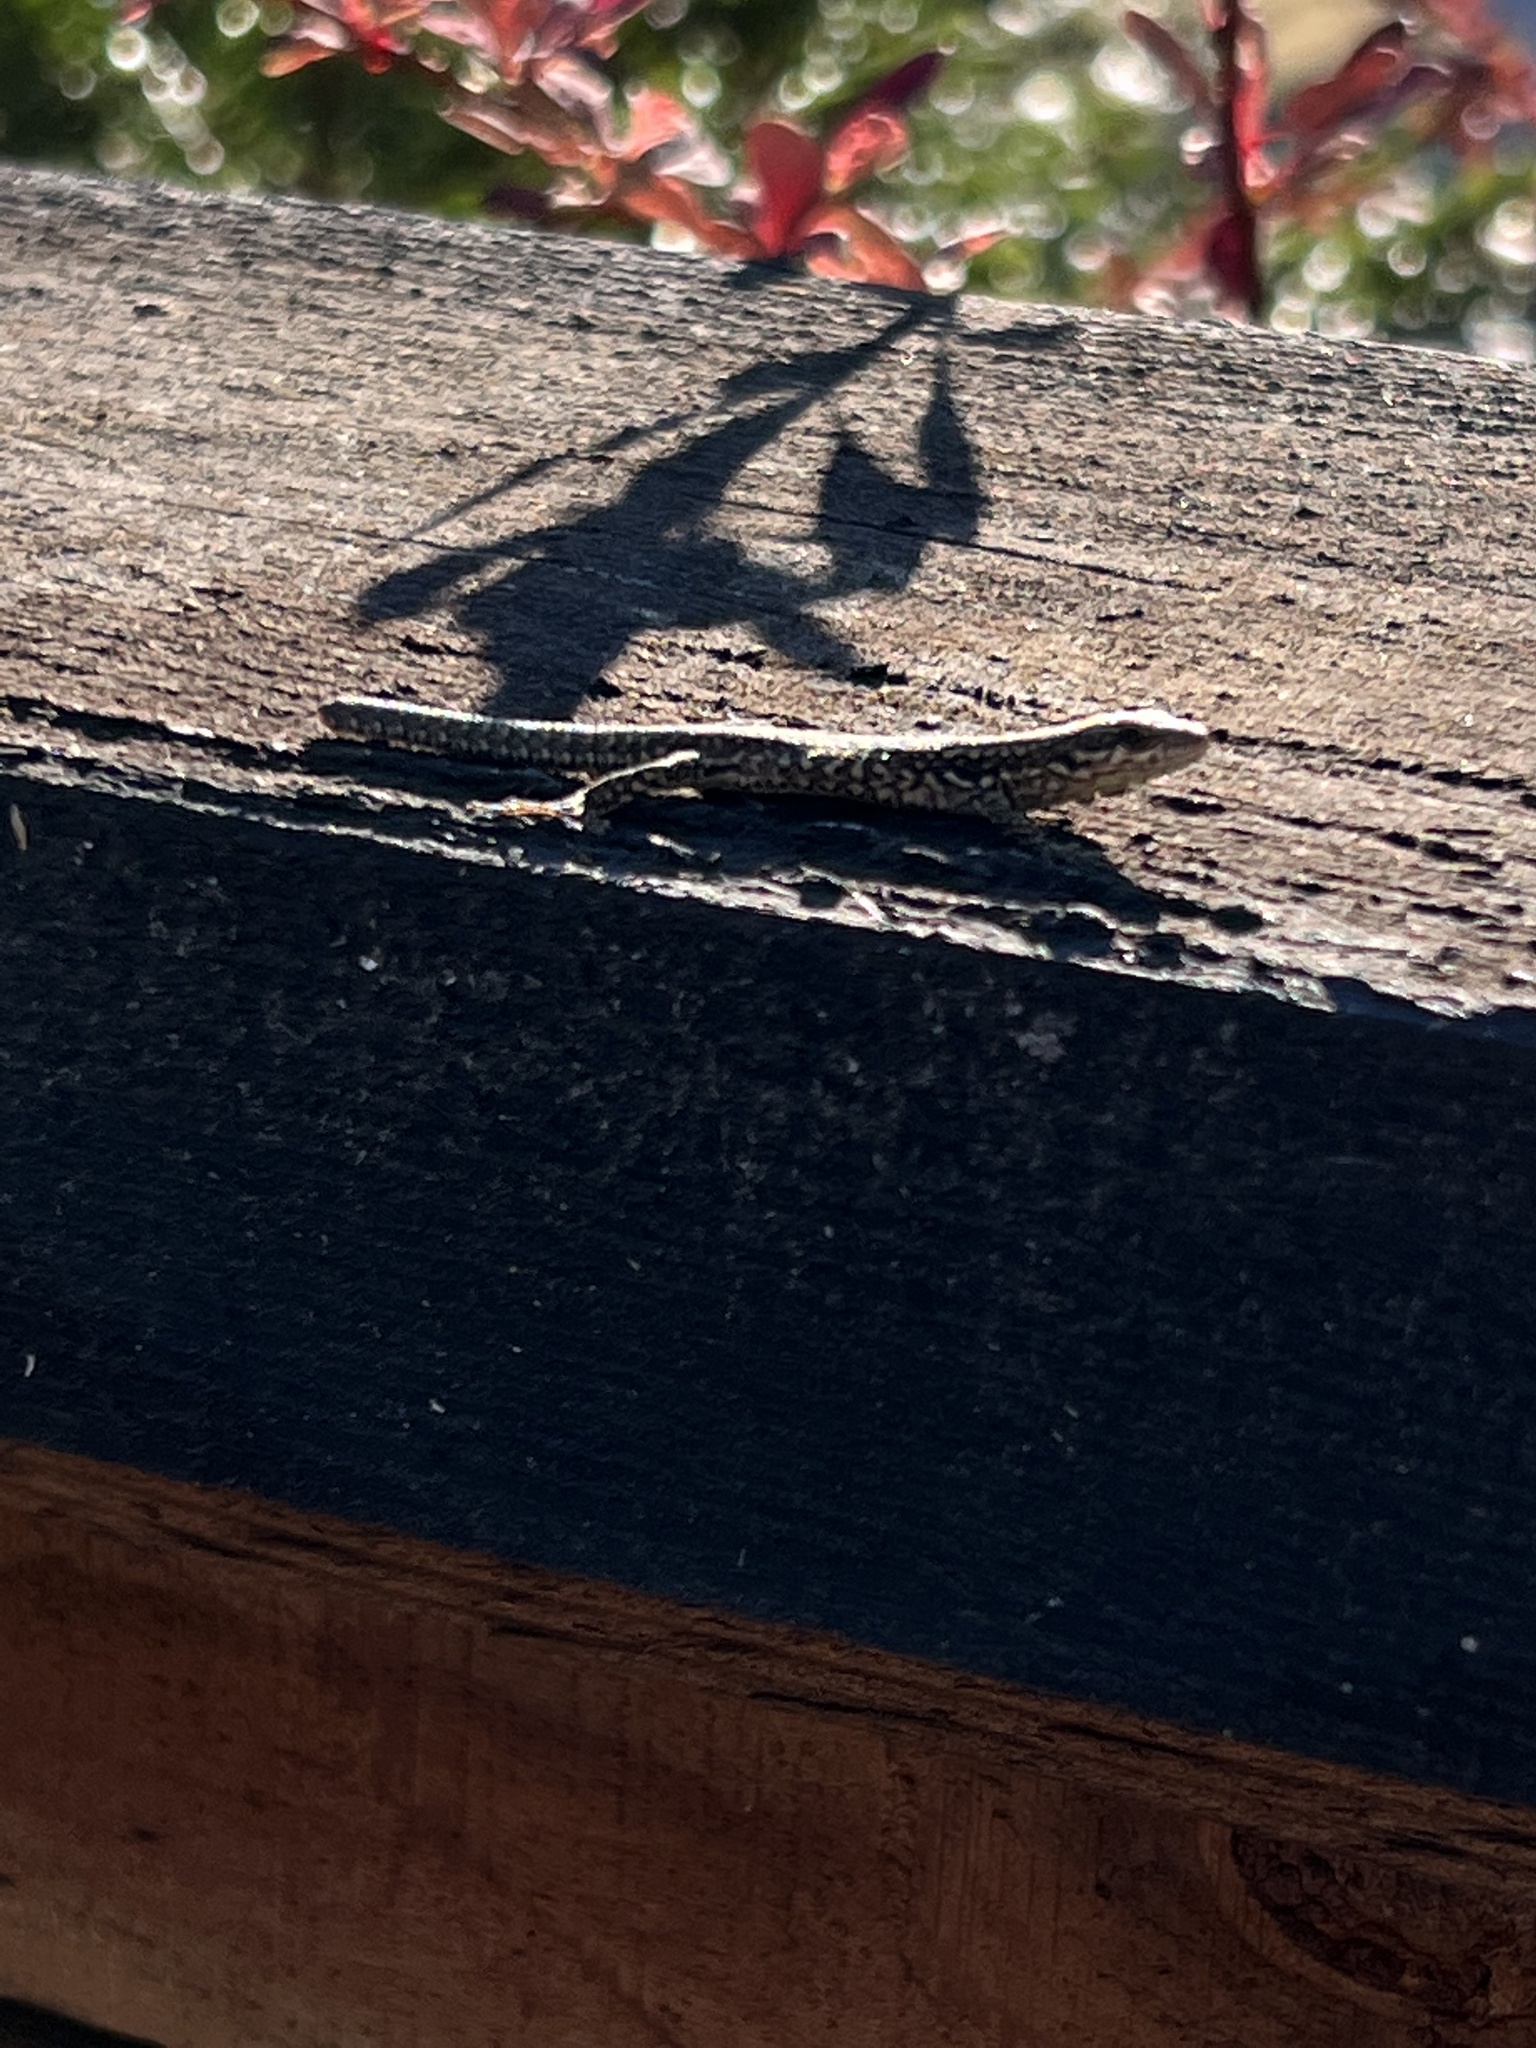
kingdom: Animalia
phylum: Chordata
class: Squamata
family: Lacertidae
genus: Podarcis
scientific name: Podarcis muralis
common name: Common wall lizard
